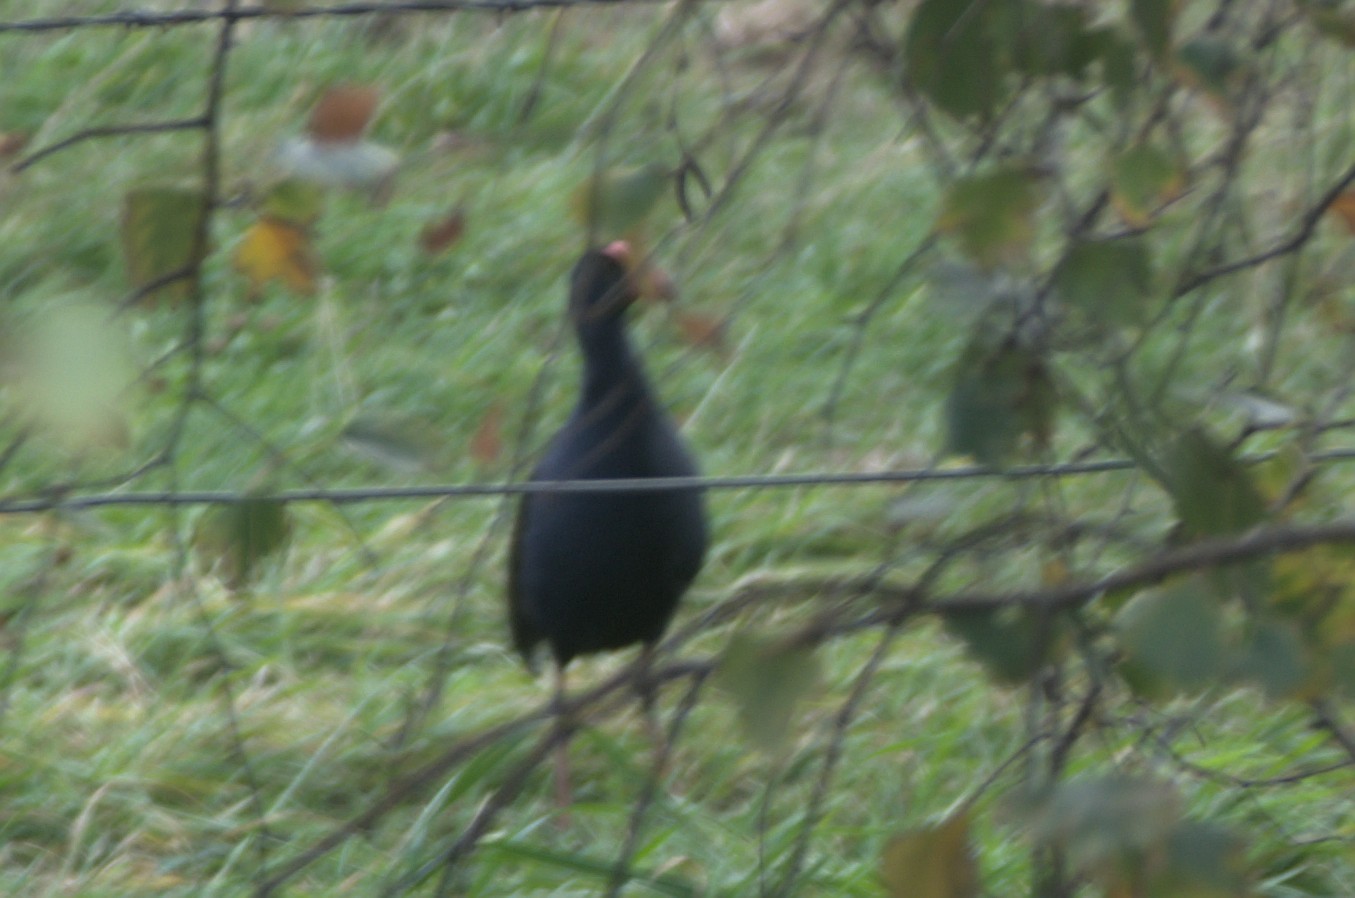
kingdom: Animalia
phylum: Chordata
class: Aves
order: Gruiformes
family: Rallidae
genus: Porphyrio
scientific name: Porphyrio melanotus
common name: Australasian swamphen
